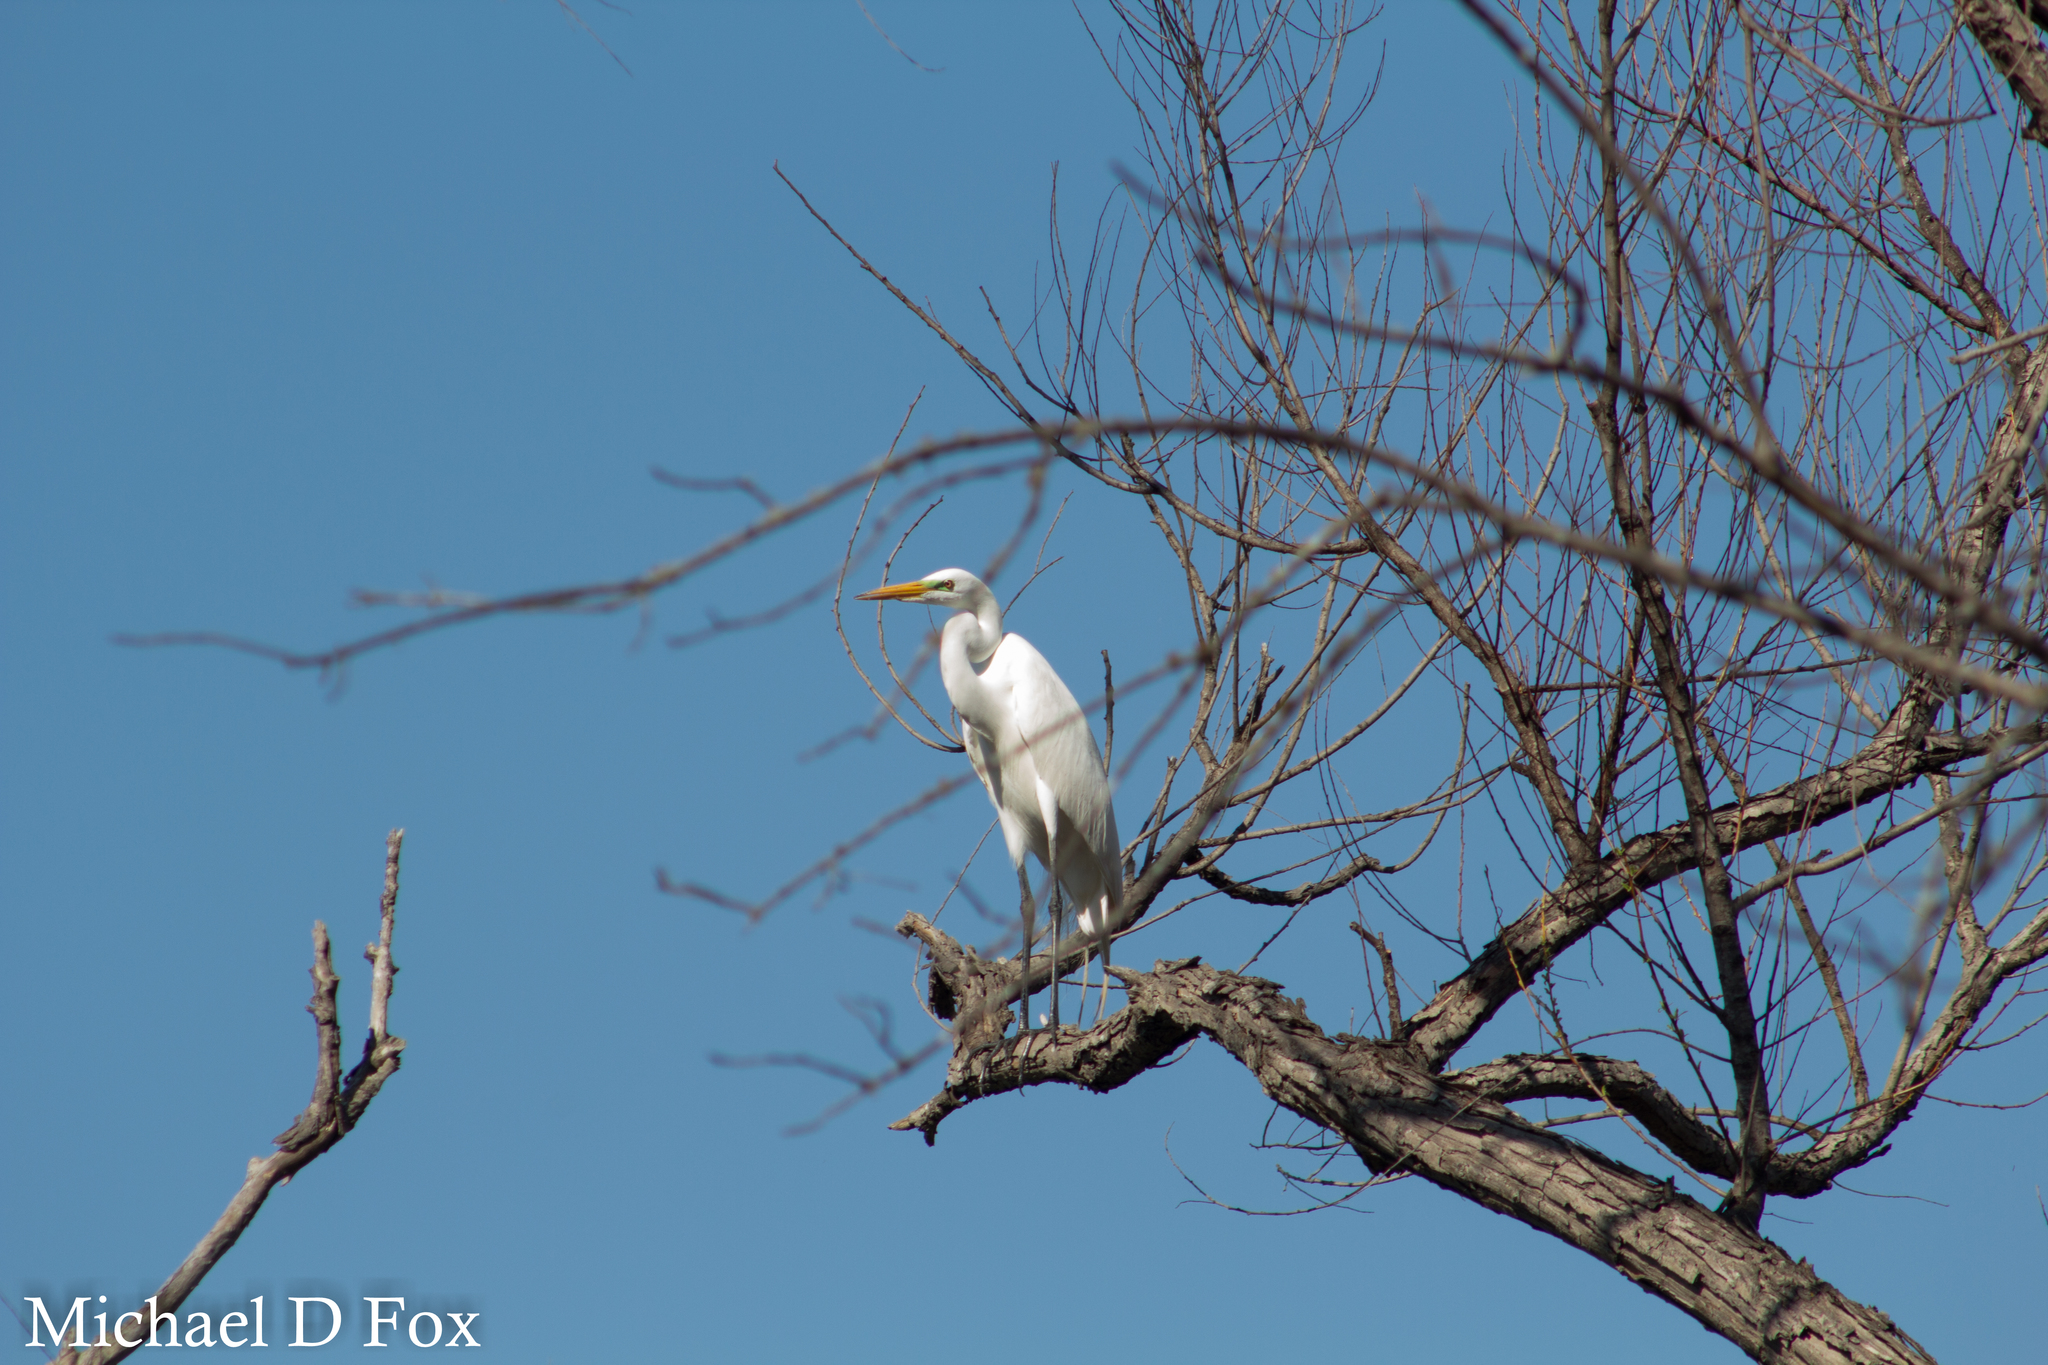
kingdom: Animalia
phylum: Chordata
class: Aves
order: Pelecaniformes
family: Ardeidae
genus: Ardea
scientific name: Ardea alba
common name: Great egret
